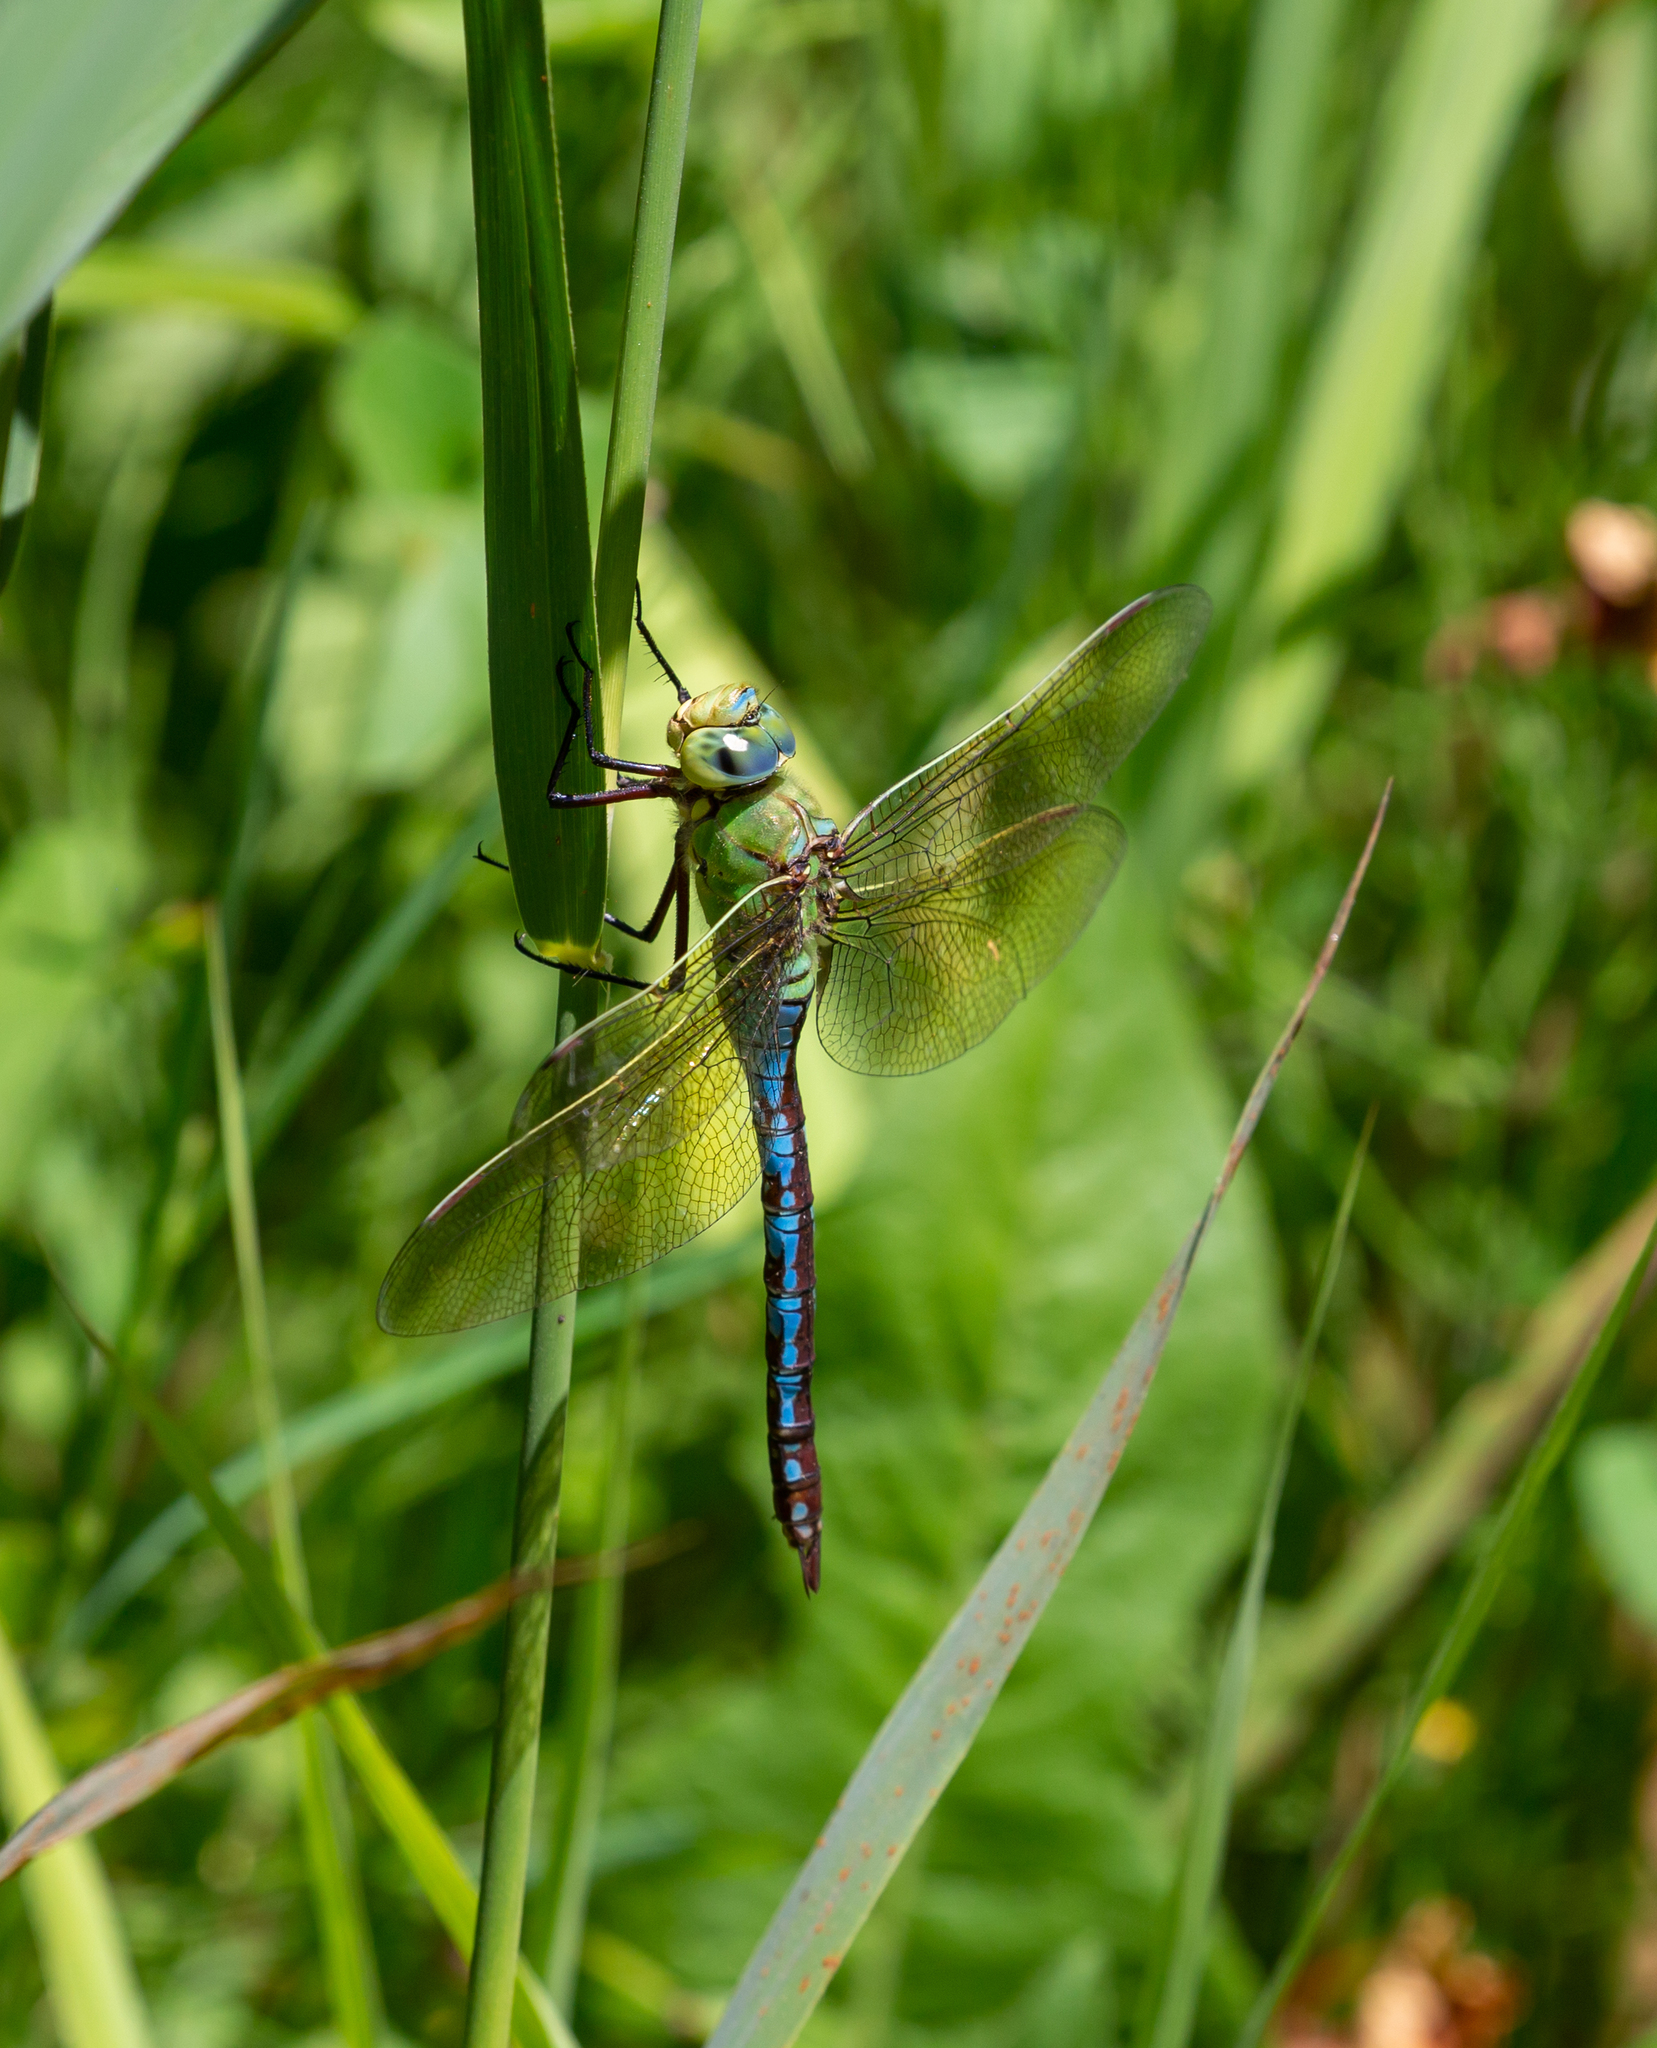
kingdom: Animalia
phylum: Arthropoda
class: Insecta
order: Odonata
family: Aeshnidae
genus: Anax
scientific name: Anax imperator
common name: Emperor dragonfly
